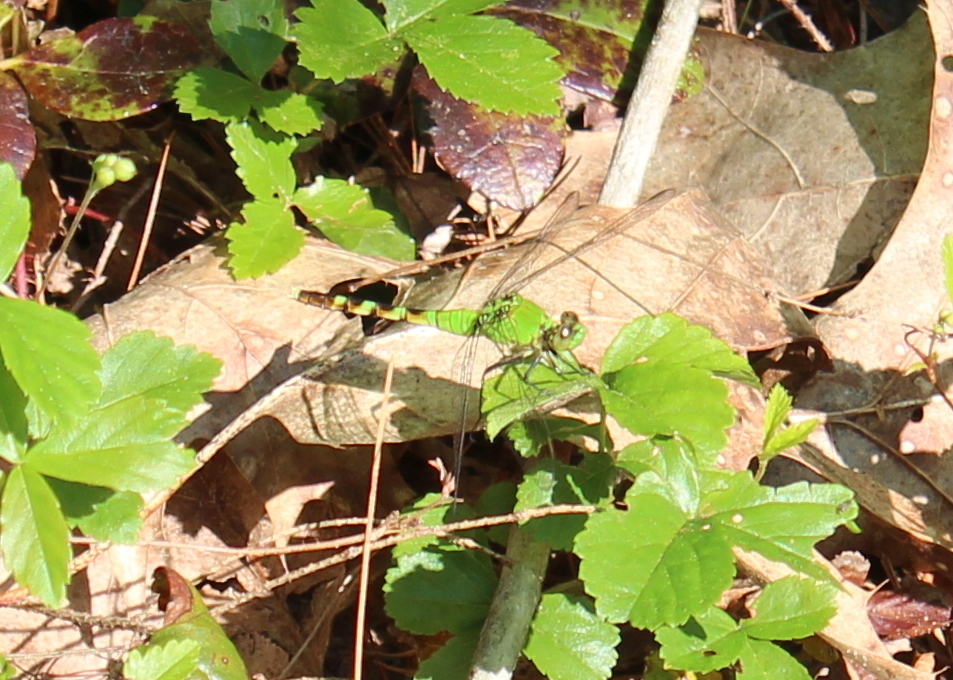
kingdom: Animalia
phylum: Arthropoda
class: Insecta
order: Odonata
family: Libellulidae
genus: Erythemis
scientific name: Erythemis simplicicollis
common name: Eastern pondhawk
